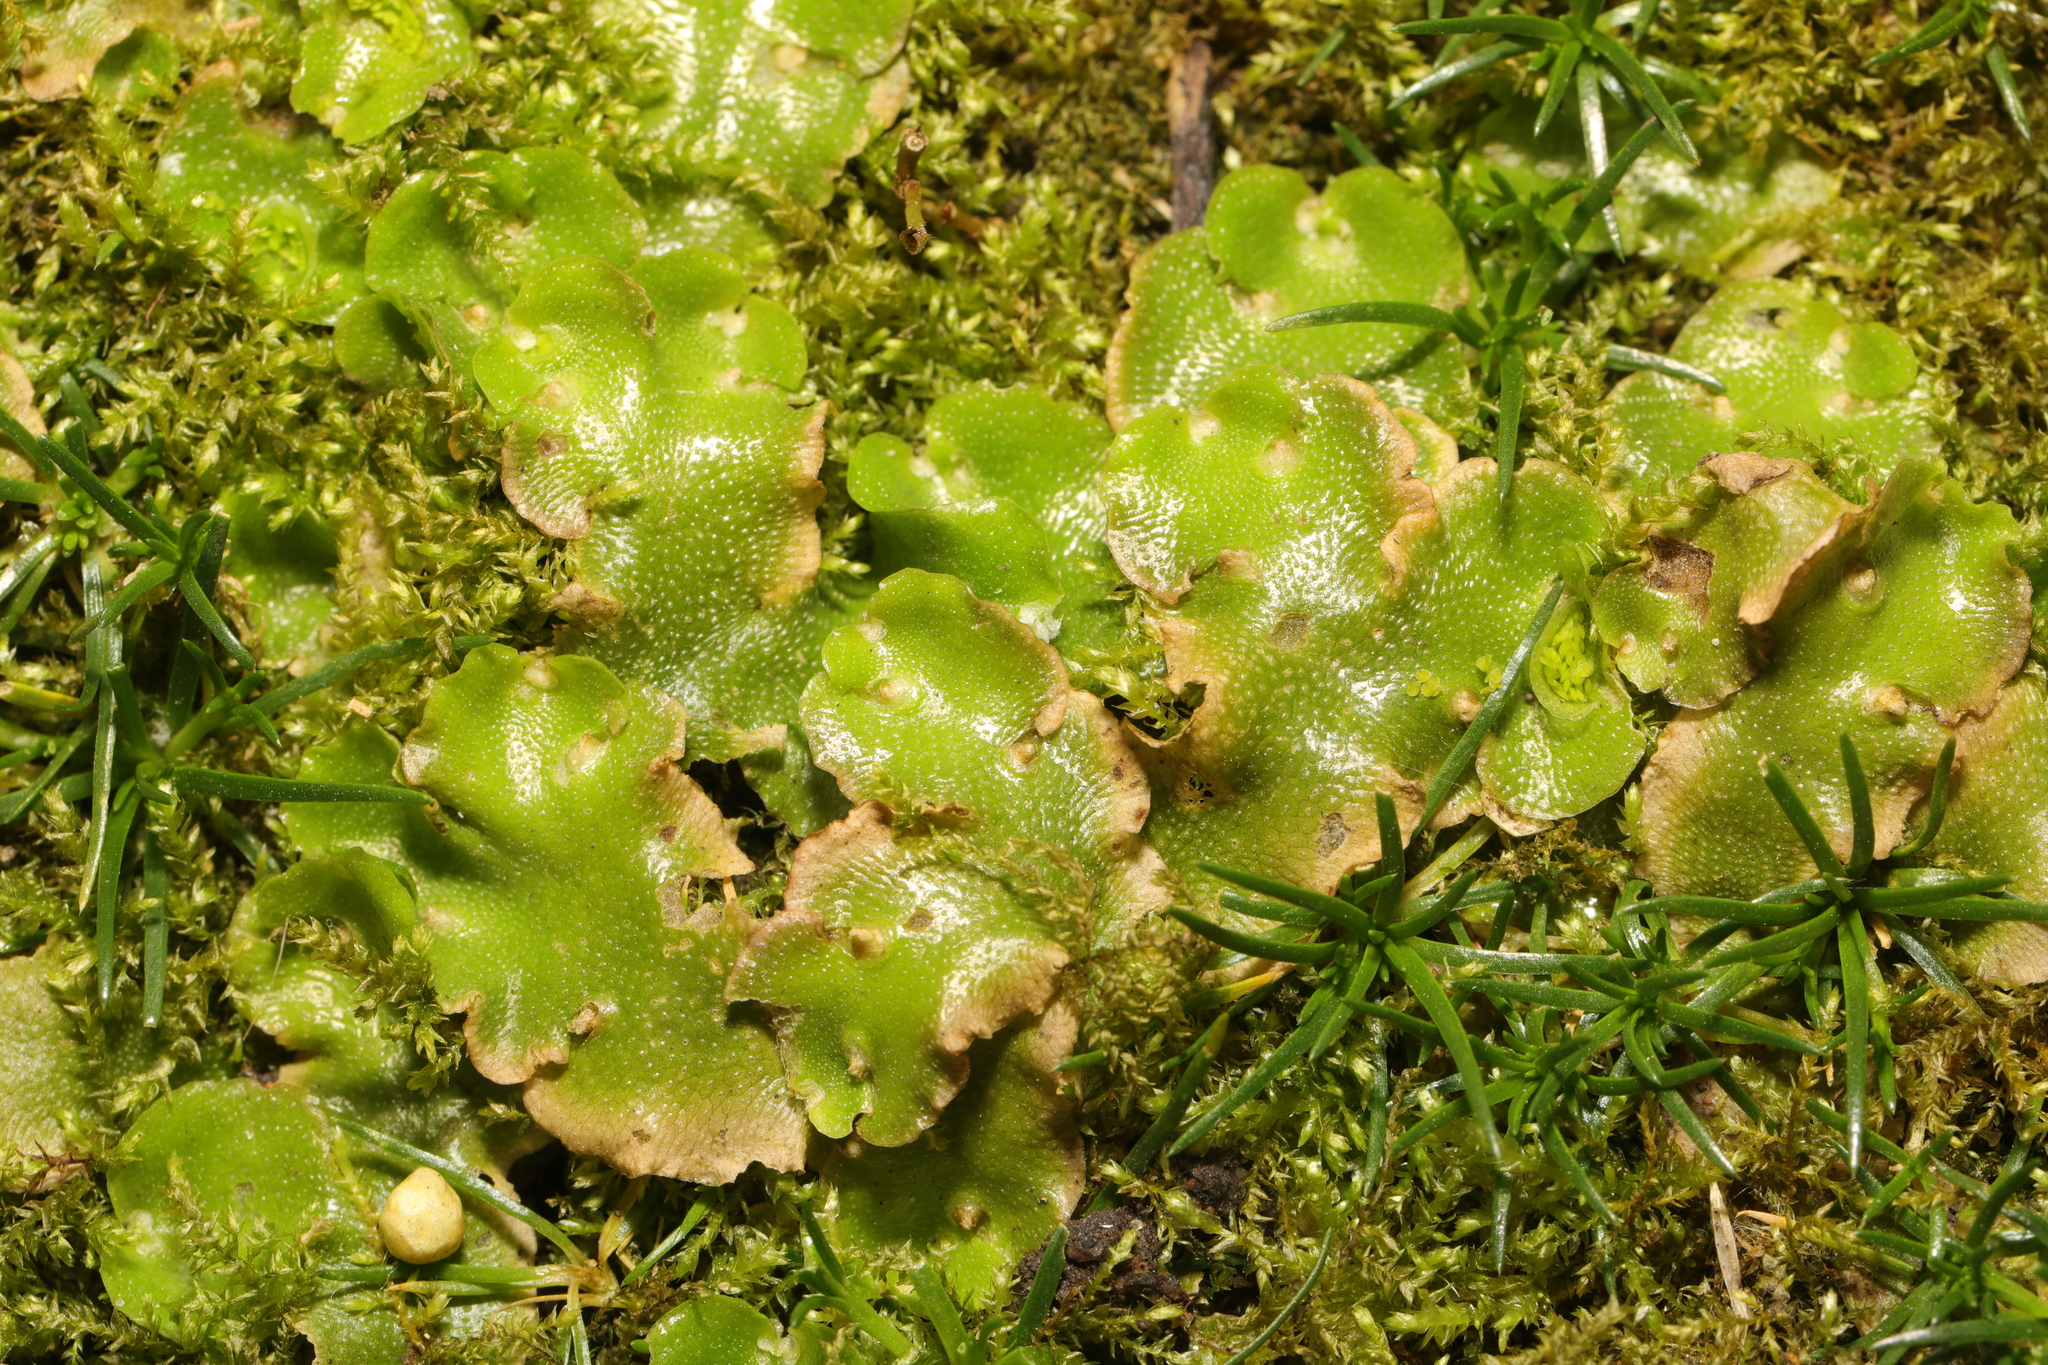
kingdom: Plantae
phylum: Marchantiophyta
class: Marchantiopsida
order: Lunulariales
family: Lunulariaceae
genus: Lunularia
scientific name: Lunularia cruciata
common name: Crescent-cup liverwort
